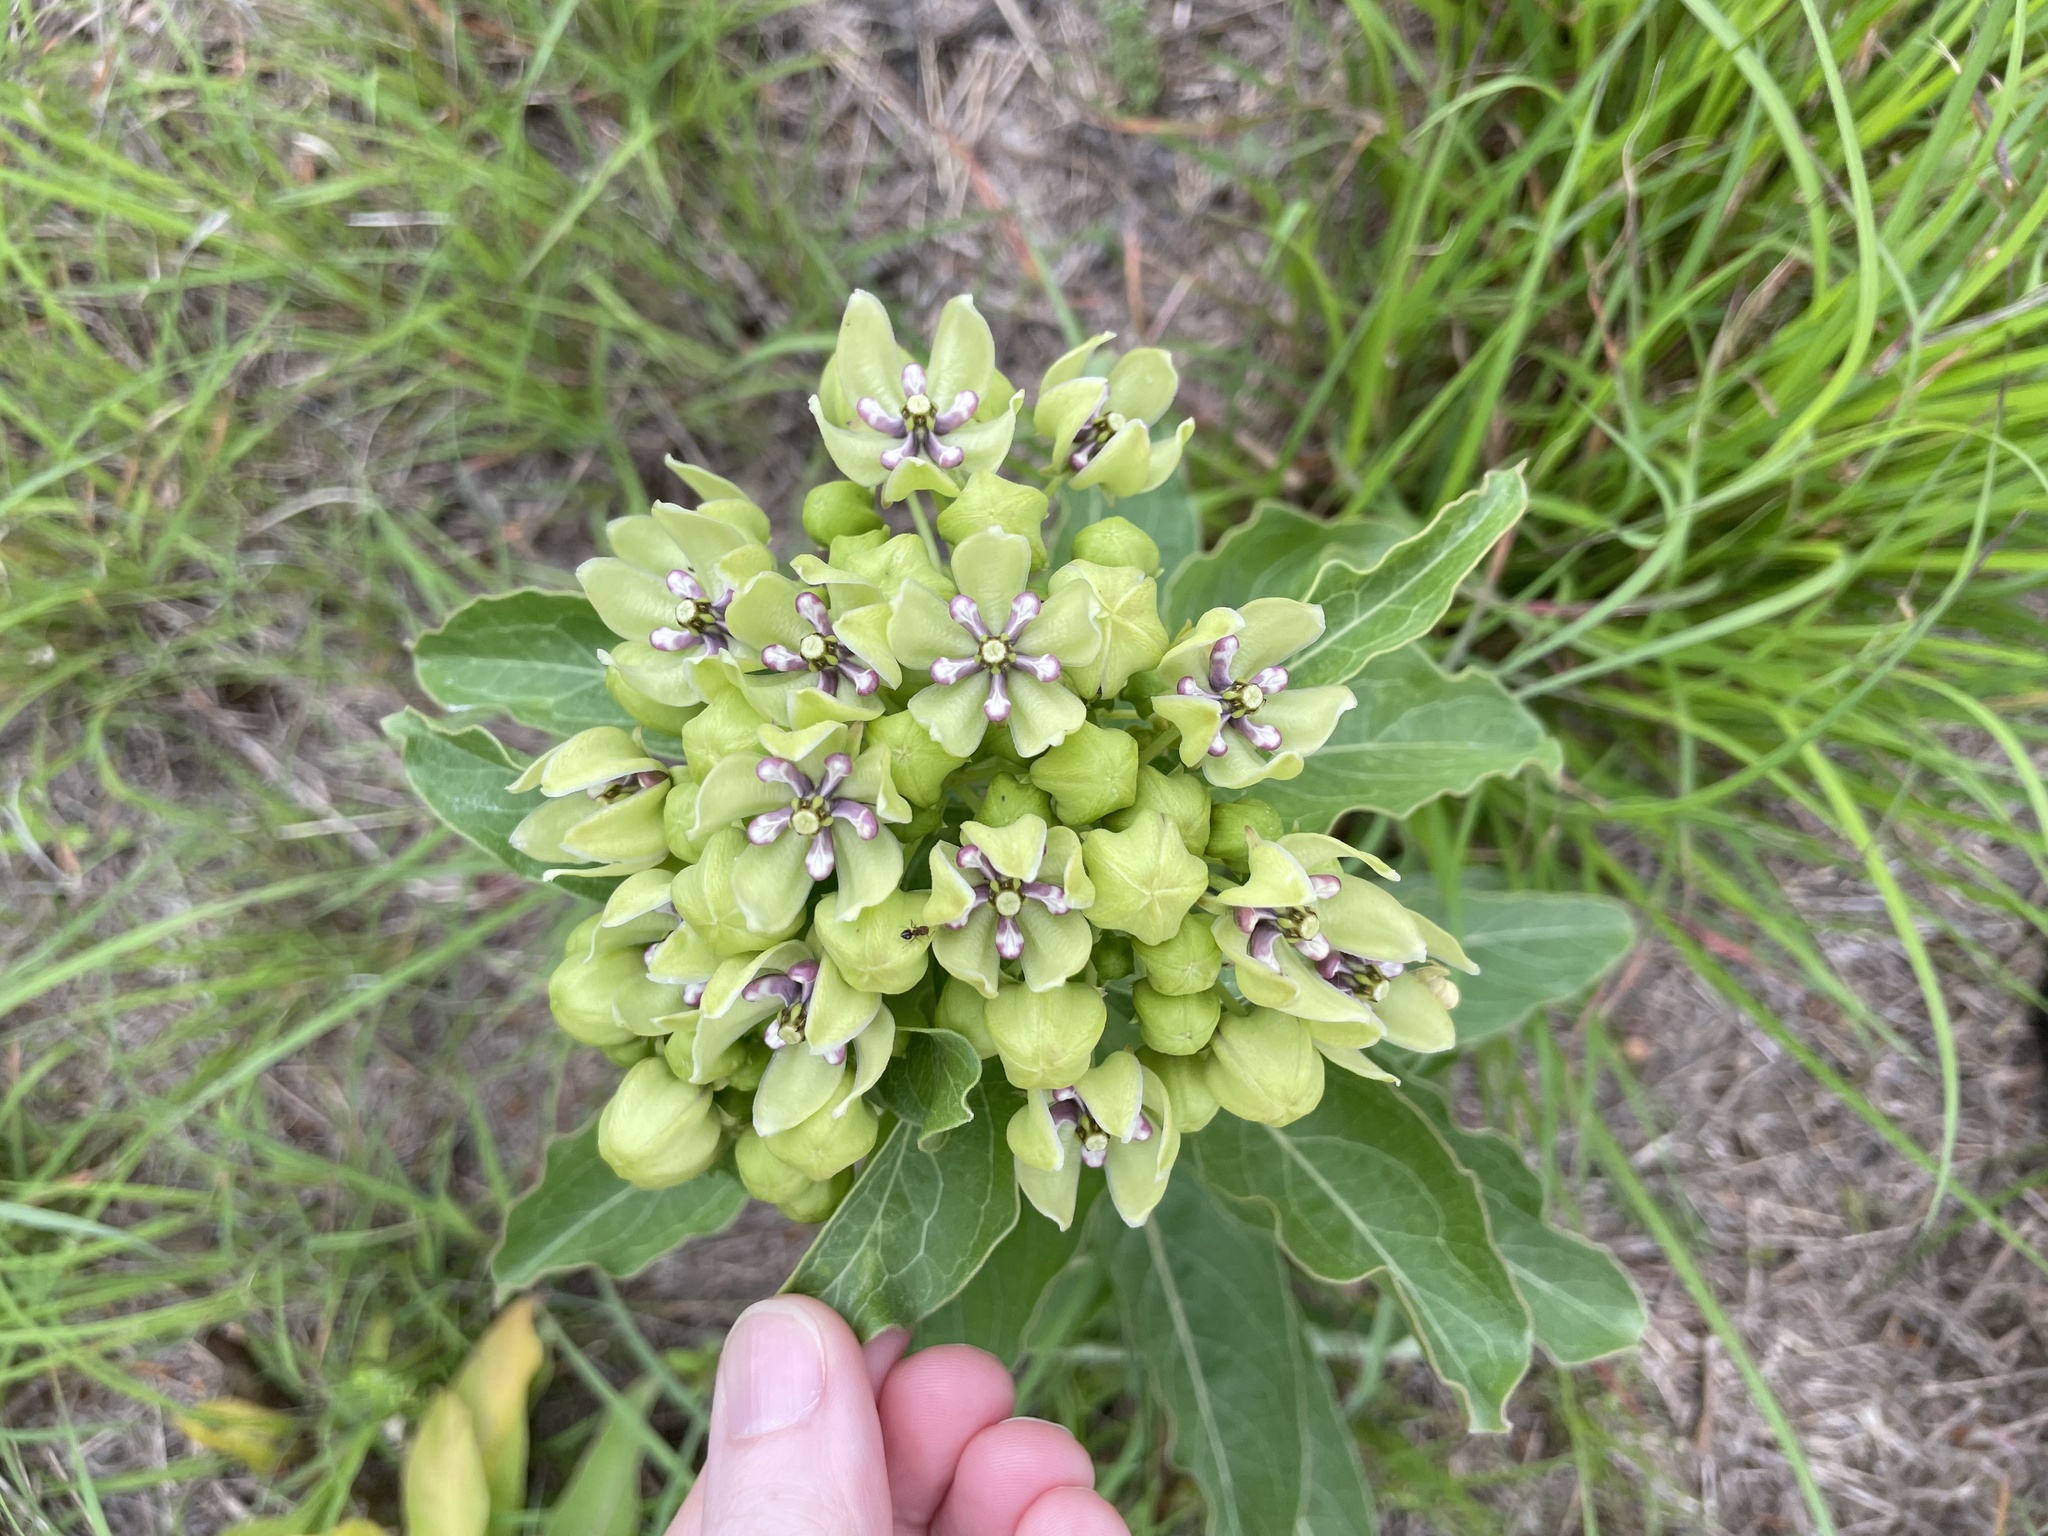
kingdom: Plantae
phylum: Tracheophyta
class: Magnoliopsida
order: Gentianales
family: Apocynaceae
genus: Asclepias
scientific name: Asclepias viridis
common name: Antelope-horns
